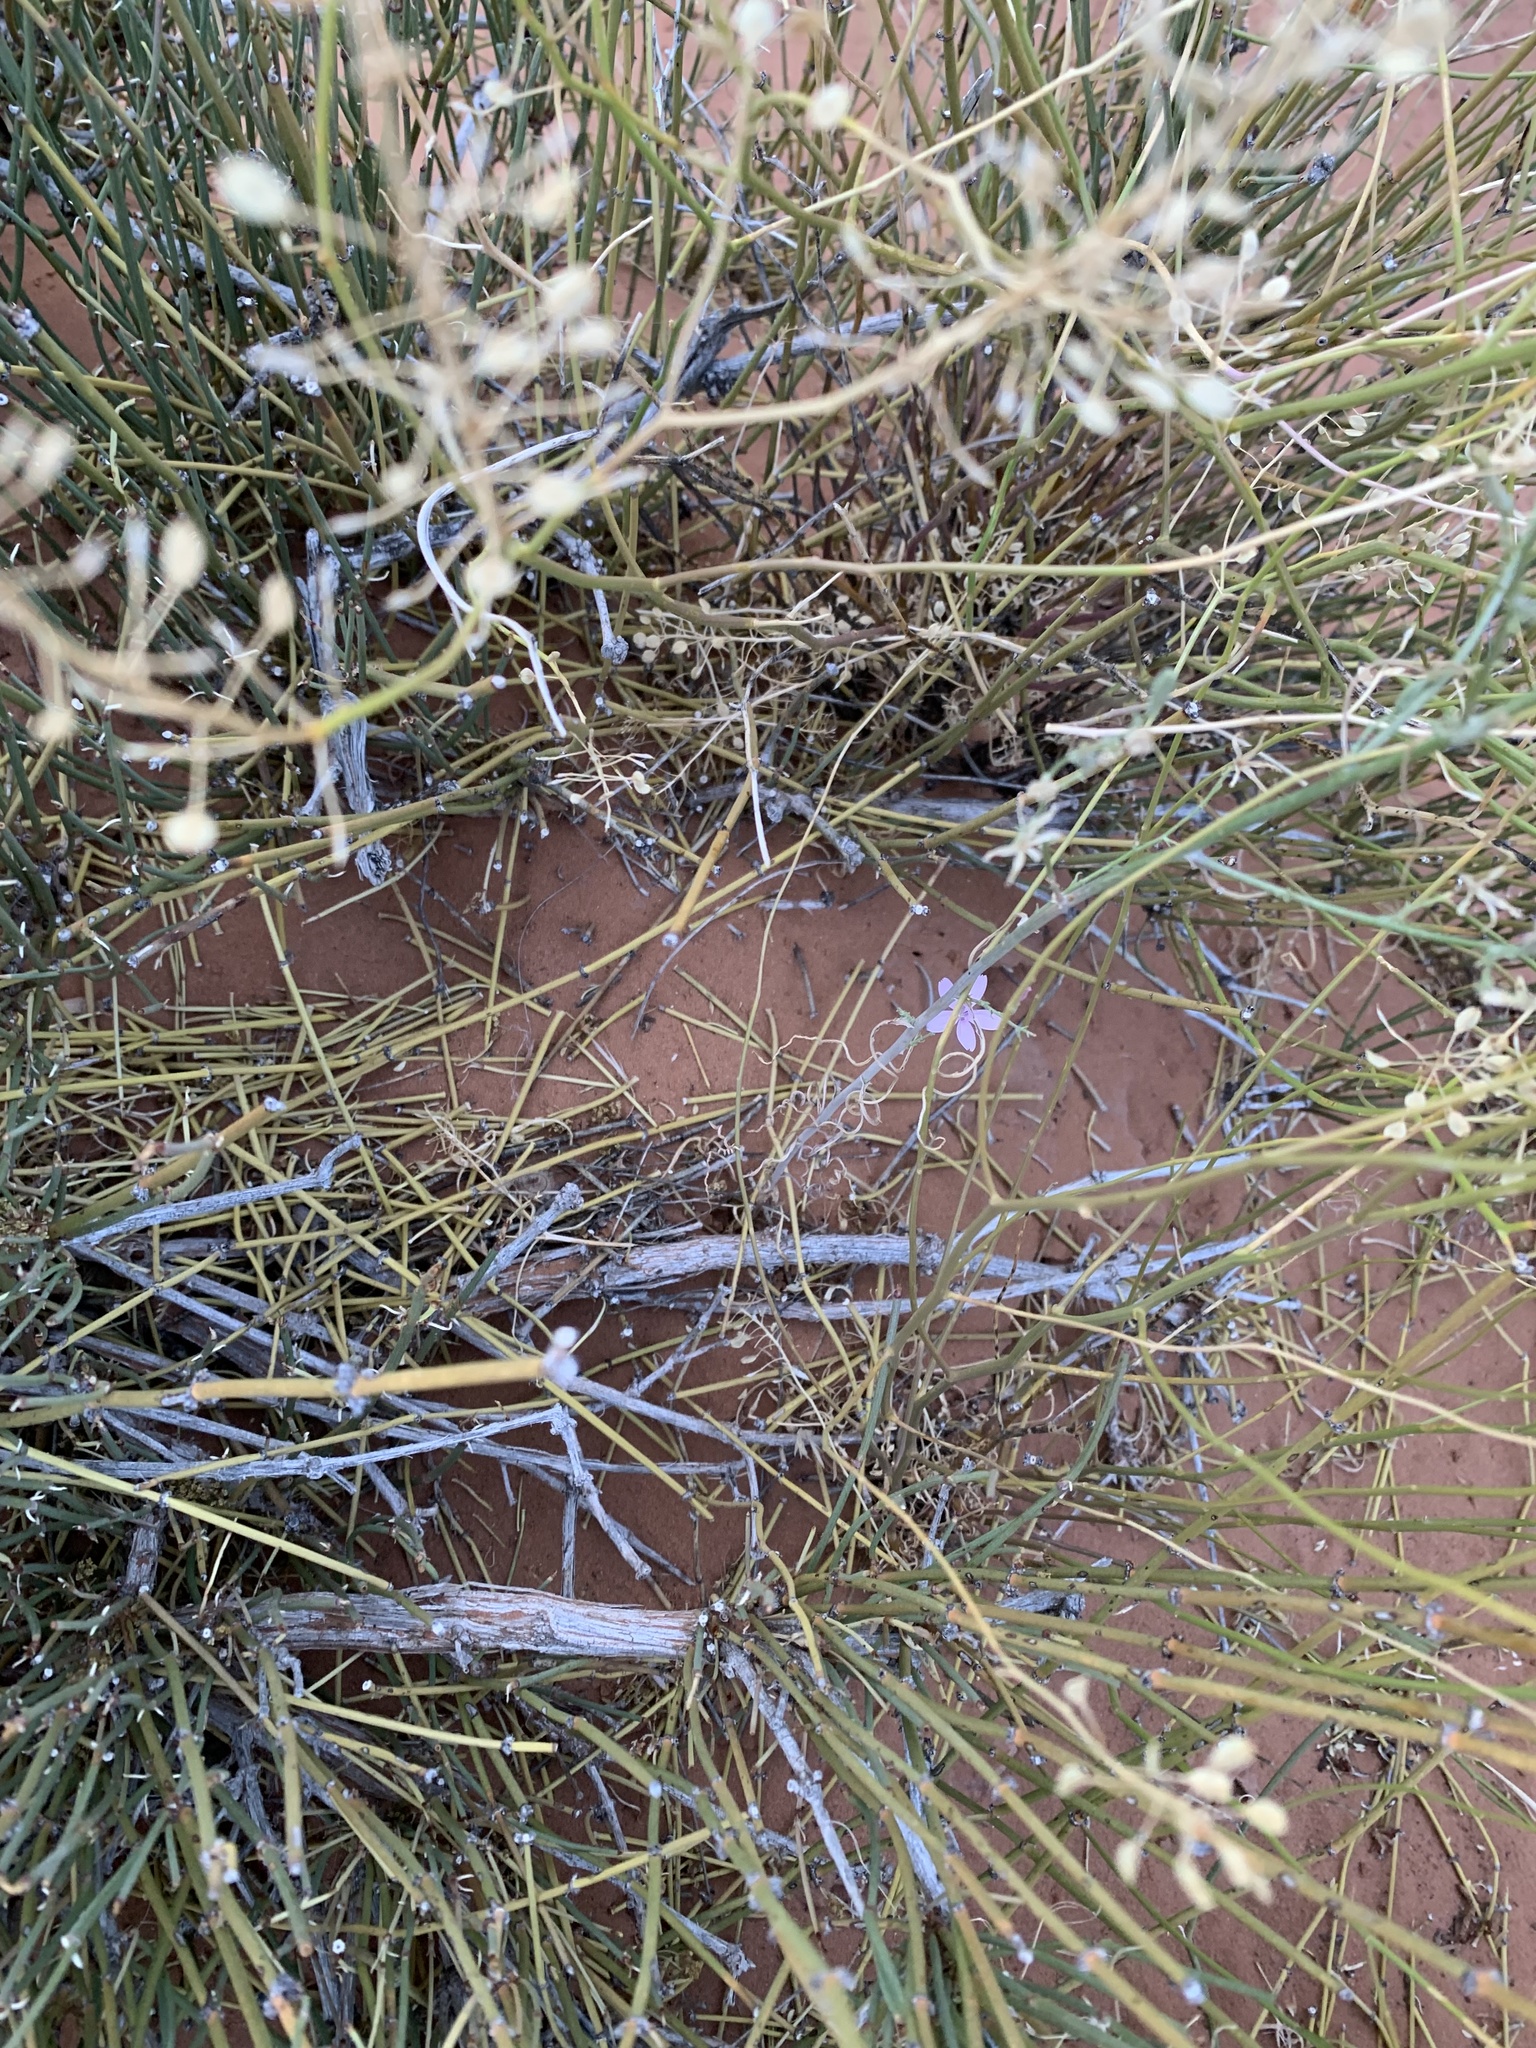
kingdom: Plantae
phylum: Tracheophyta
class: Magnoliopsida
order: Asterales
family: Asteraceae
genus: Stephanomeria
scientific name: Stephanomeria exigua
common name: Small wirelettuce
